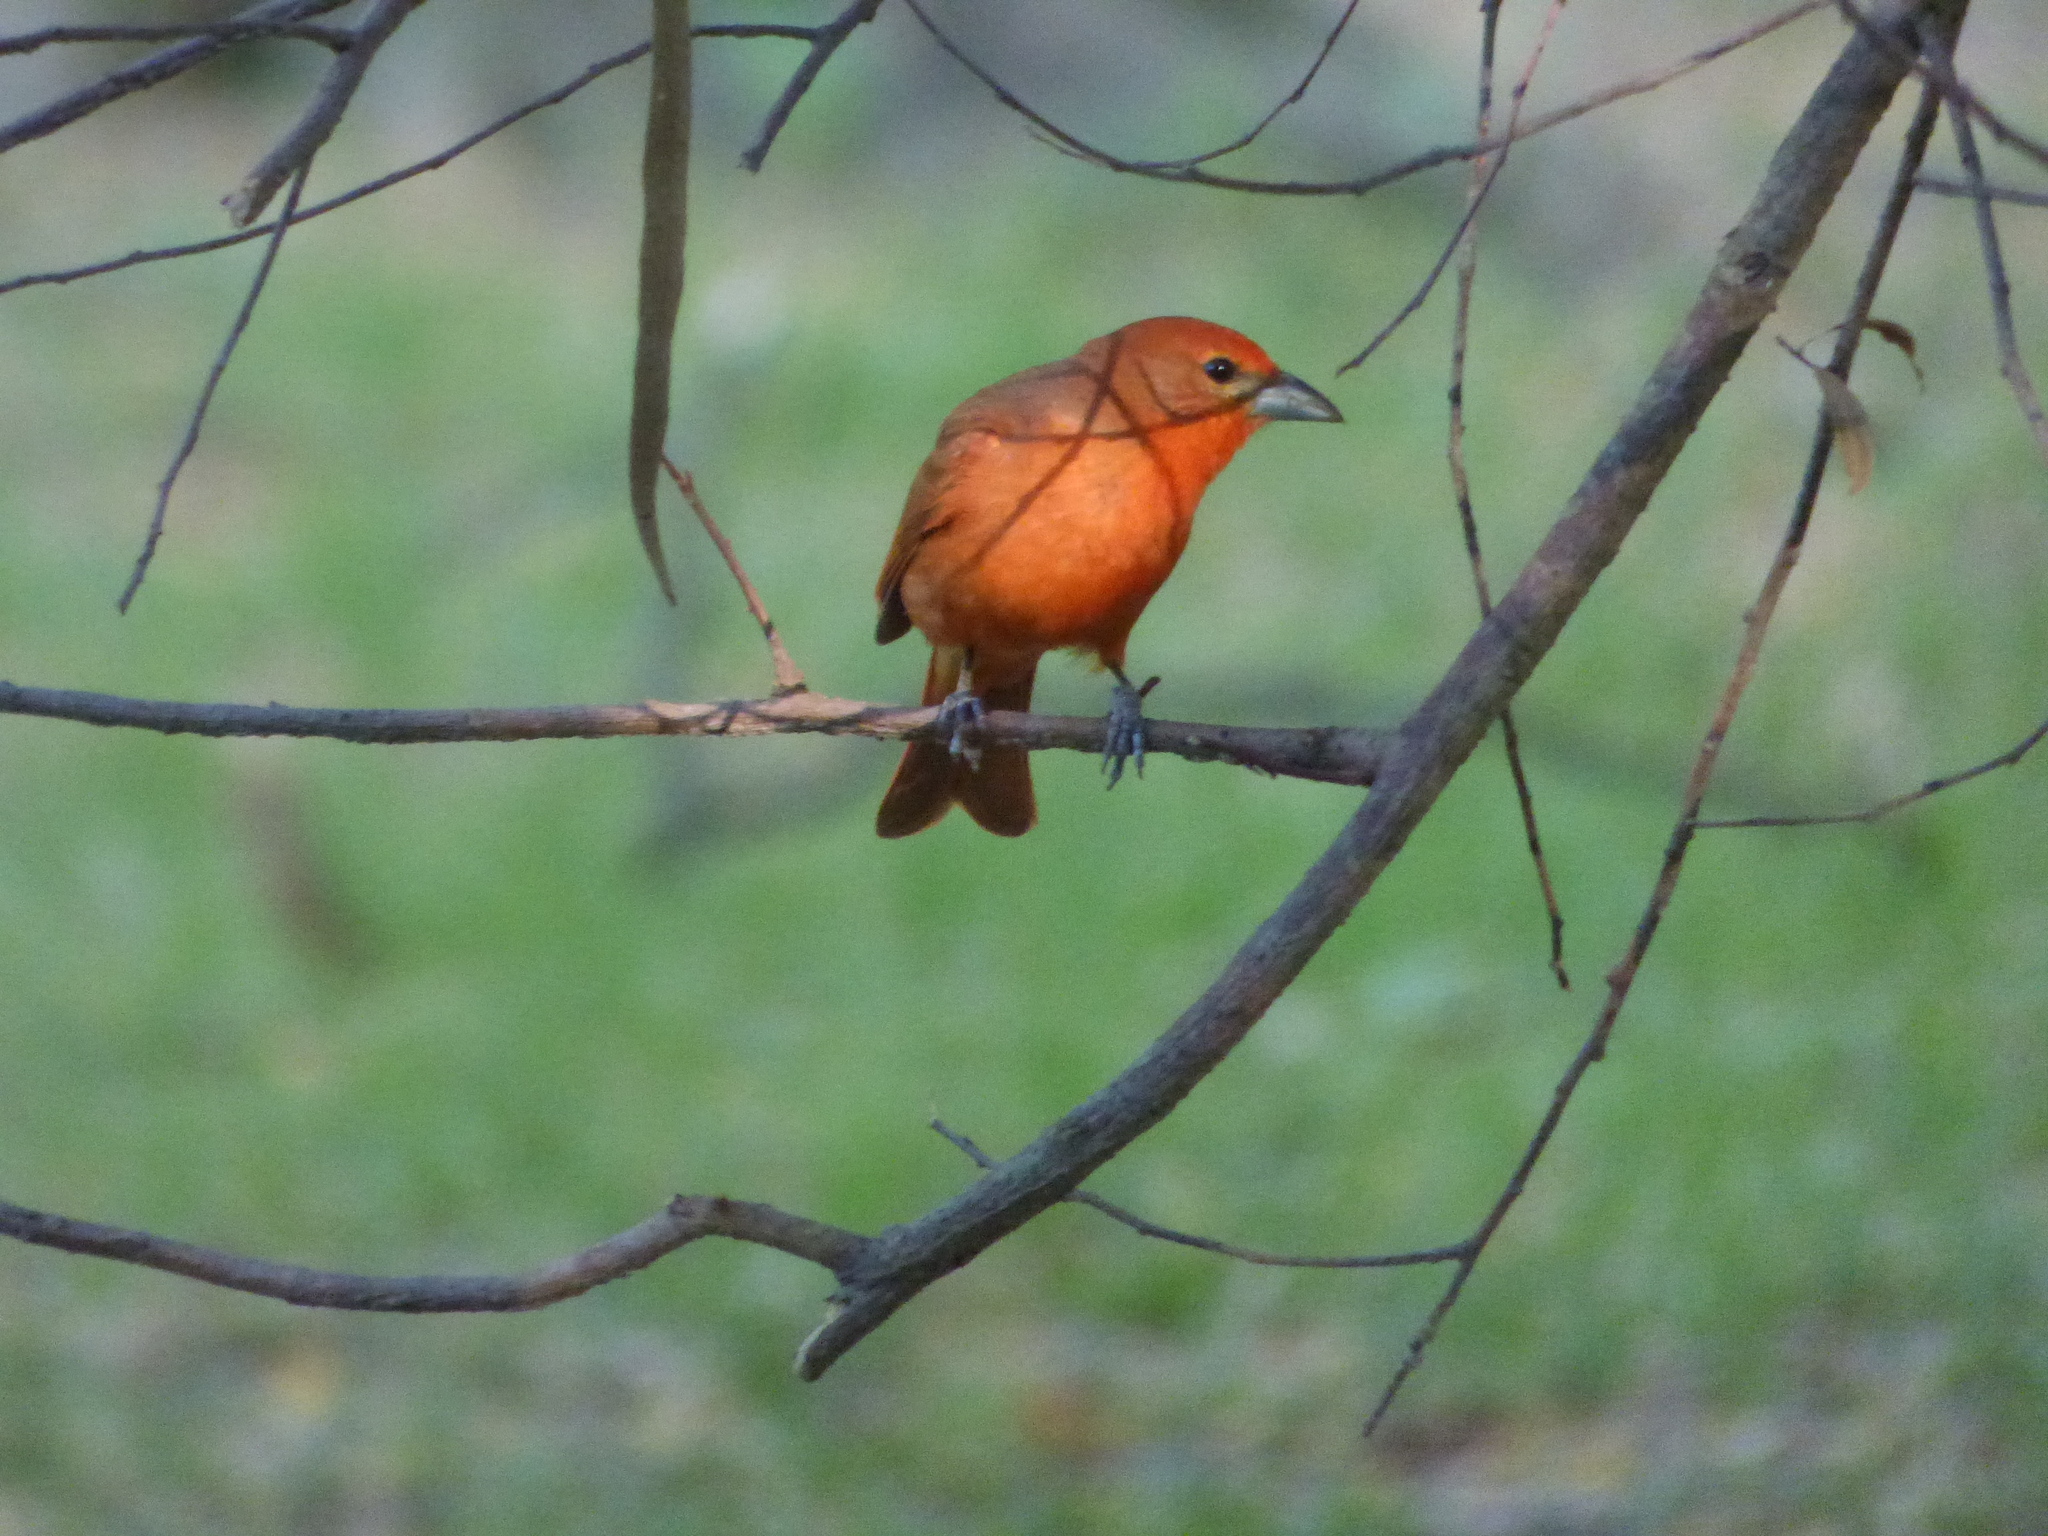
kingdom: Animalia
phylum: Chordata
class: Aves
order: Passeriformes
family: Cardinalidae
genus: Piranga
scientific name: Piranga flava
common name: Red tanager
